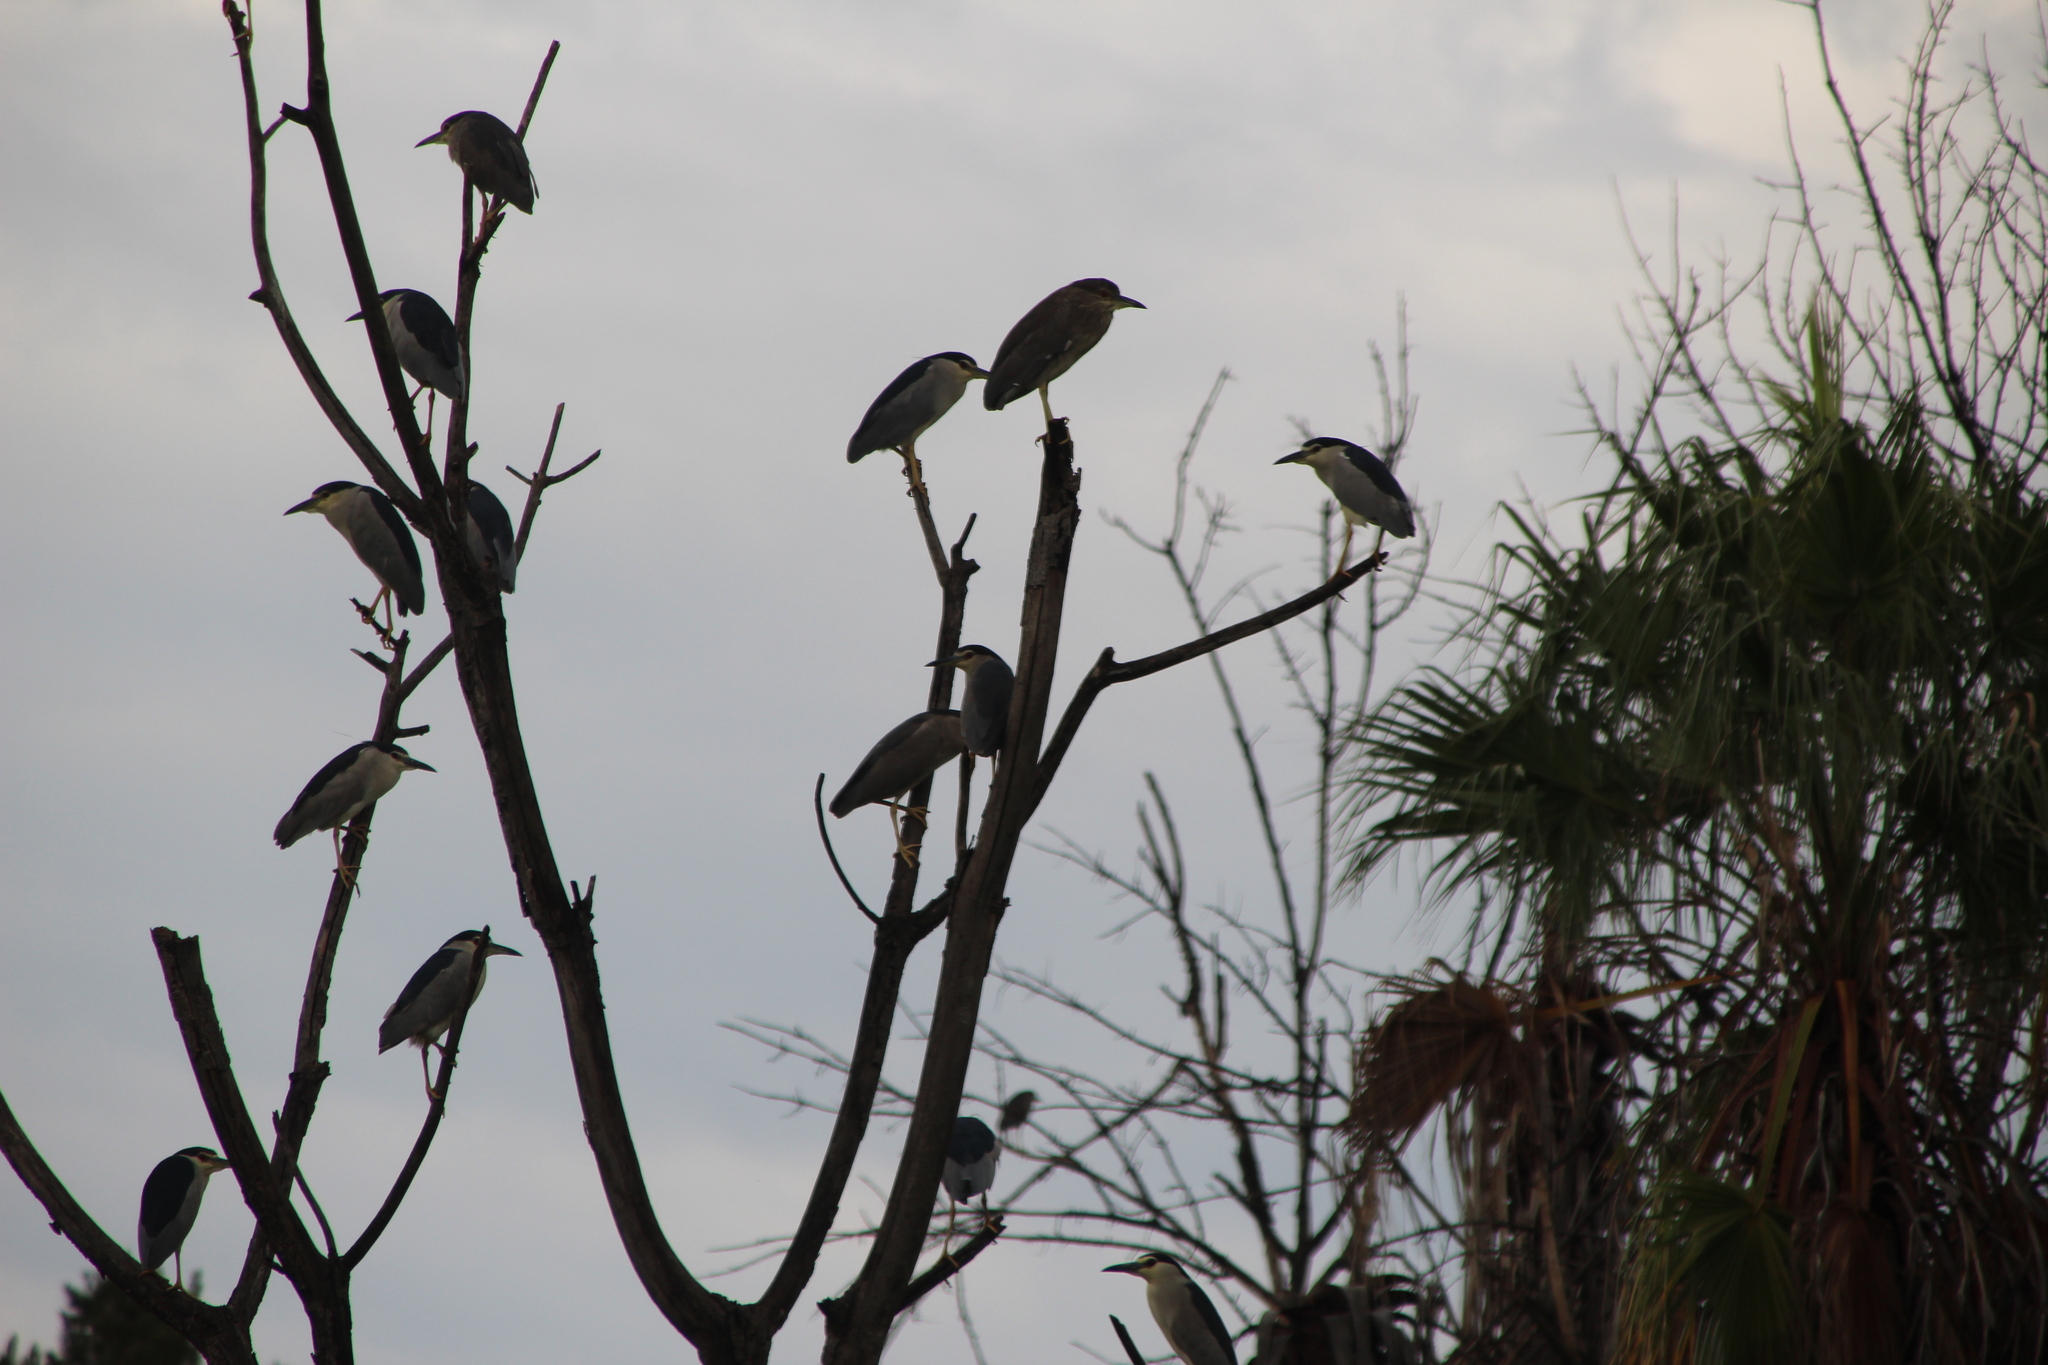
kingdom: Animalia
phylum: Chordata
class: Aves
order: Pelecaniformes
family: Ardeidae
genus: Nycticorax
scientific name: Nycticorax nycticorax
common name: Black-crowned night heron
